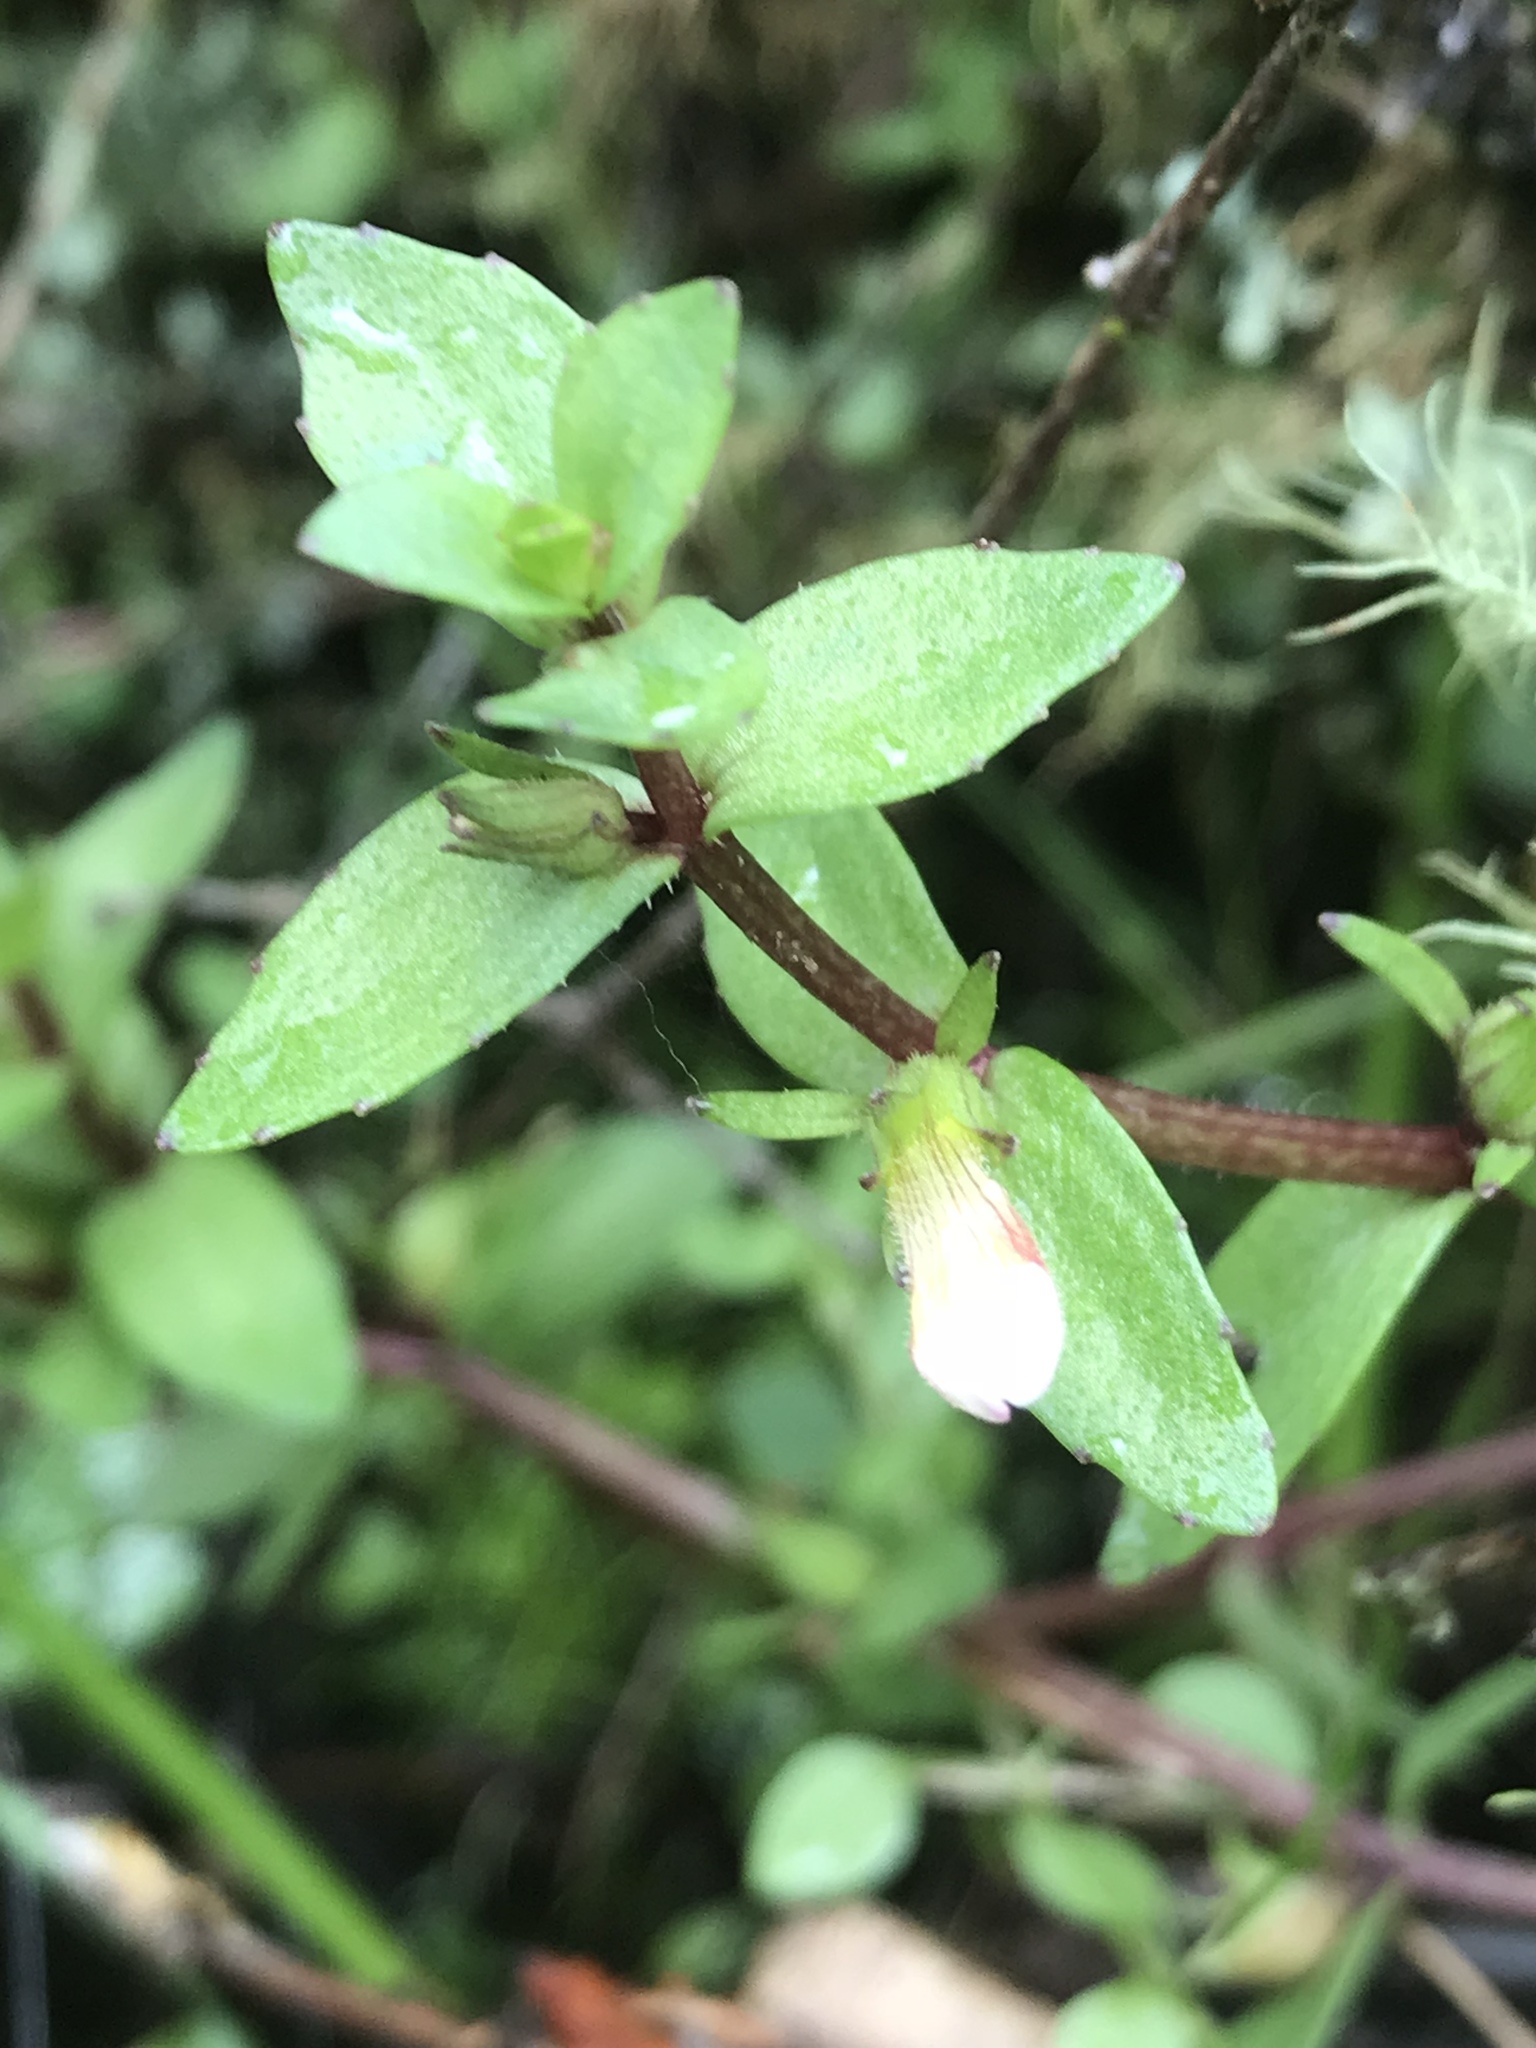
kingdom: Plantae
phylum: Tracheophyta
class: Magnoliopsida
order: Lamiales
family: Plantaginaceae
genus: Gratiola
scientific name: Gratiola sexdentata
